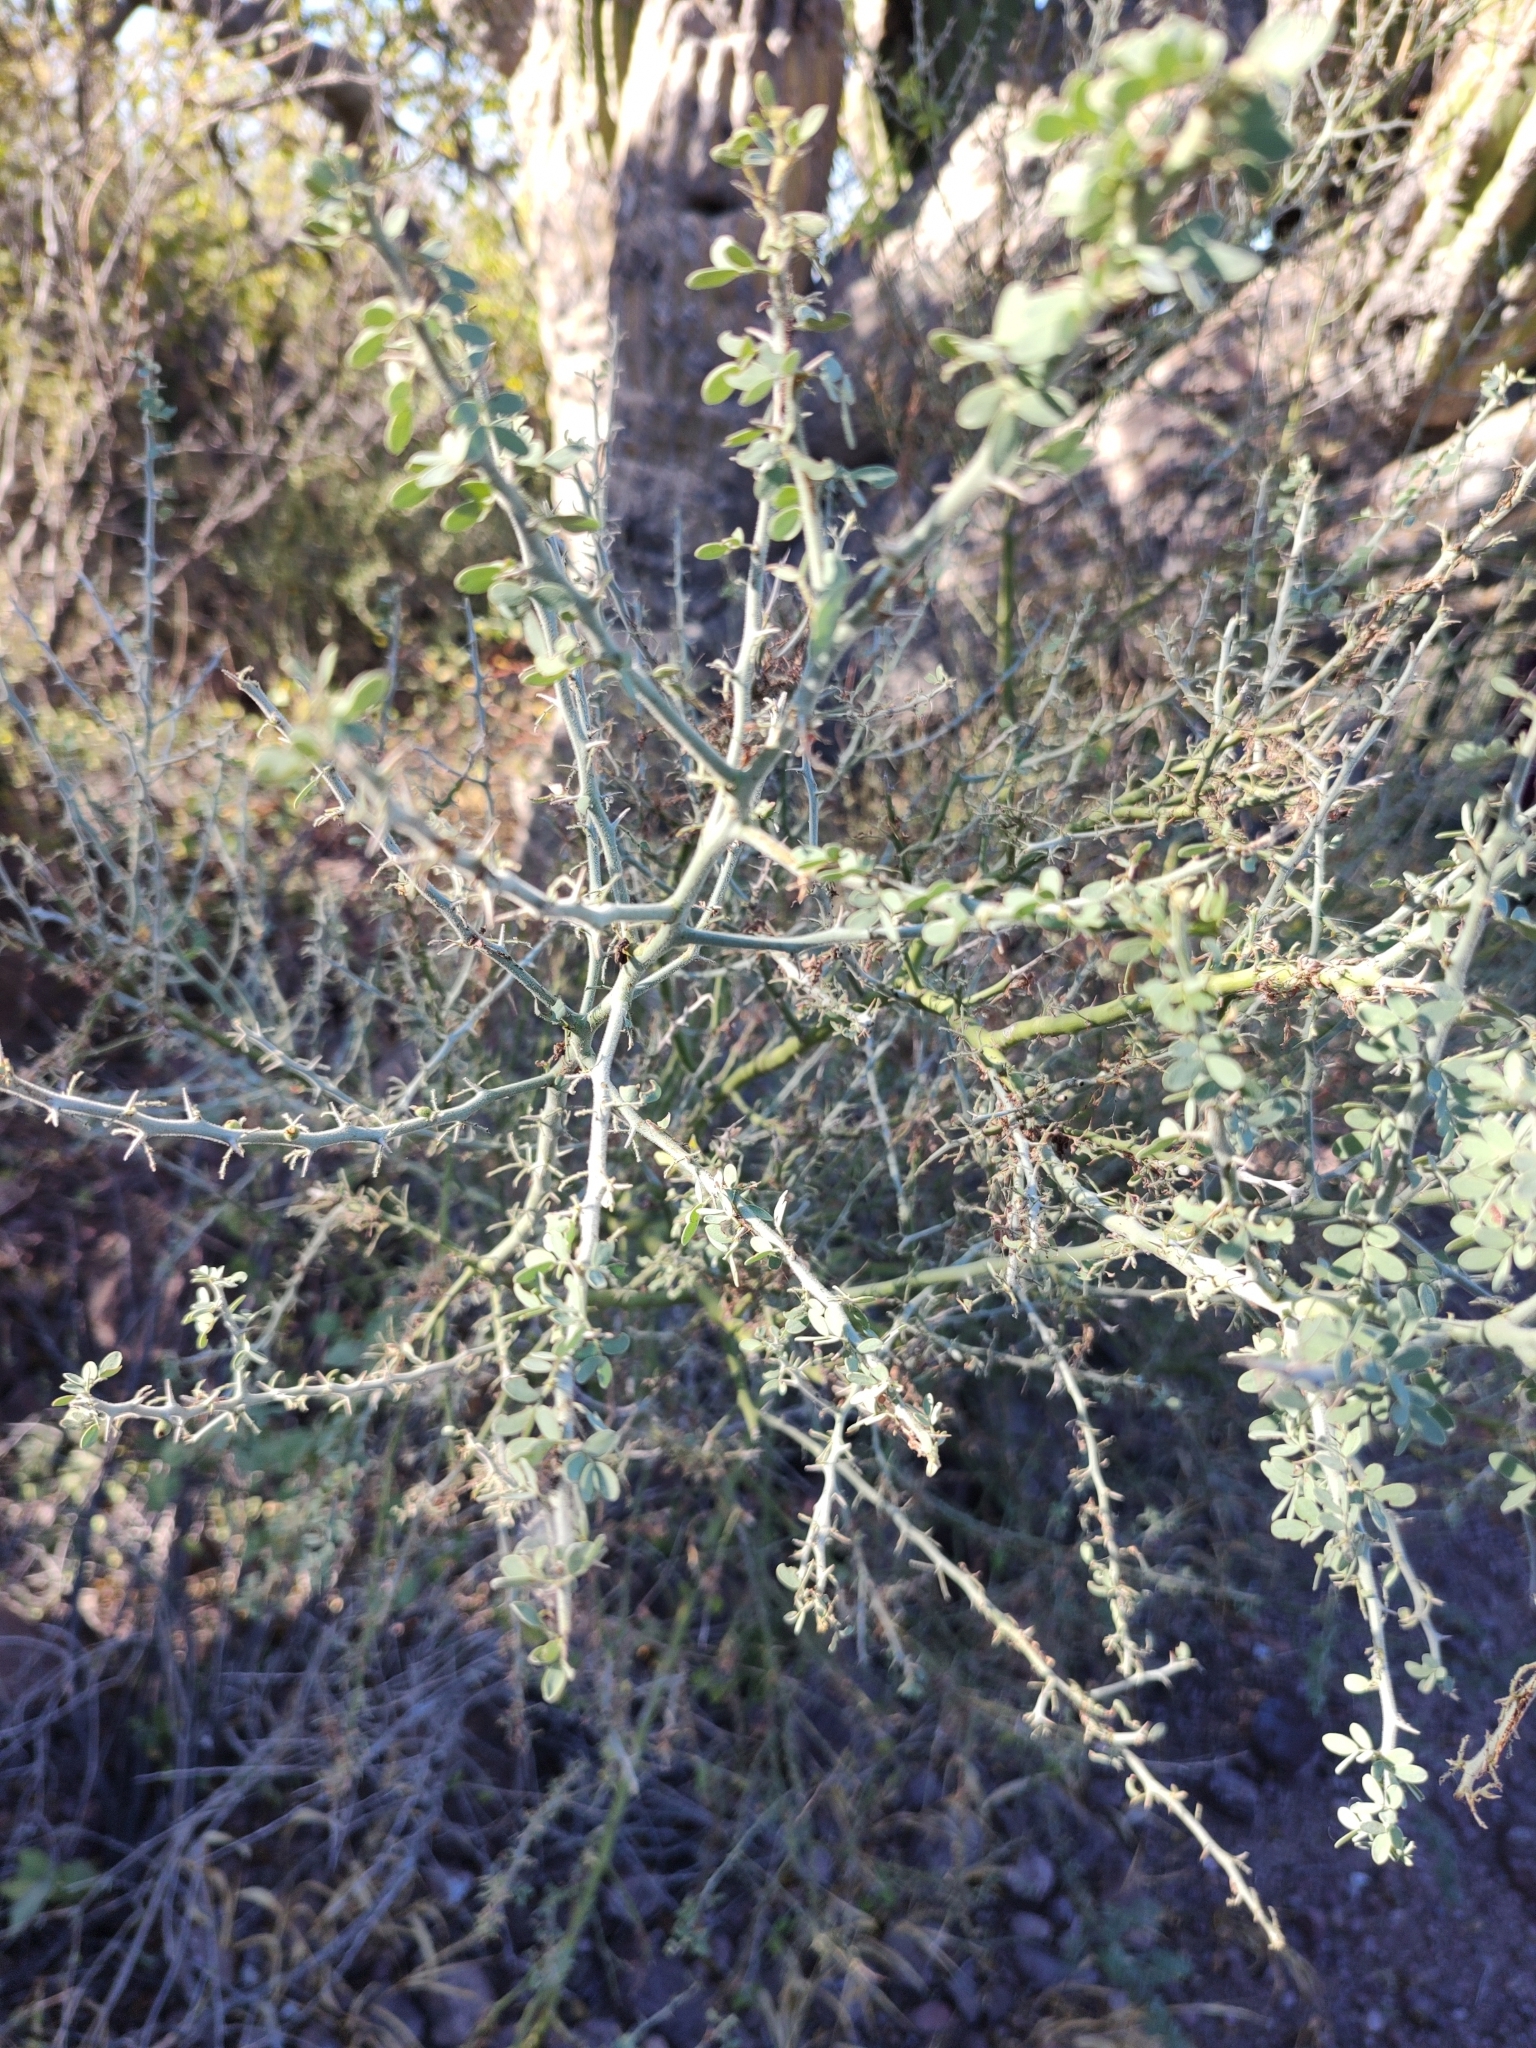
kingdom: Plantae
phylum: Tracheophyta
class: Magnoliopsida
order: Fabales
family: Fabaceae
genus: Parkinsonia
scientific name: Parkinsonia florida
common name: Blue paloverde
